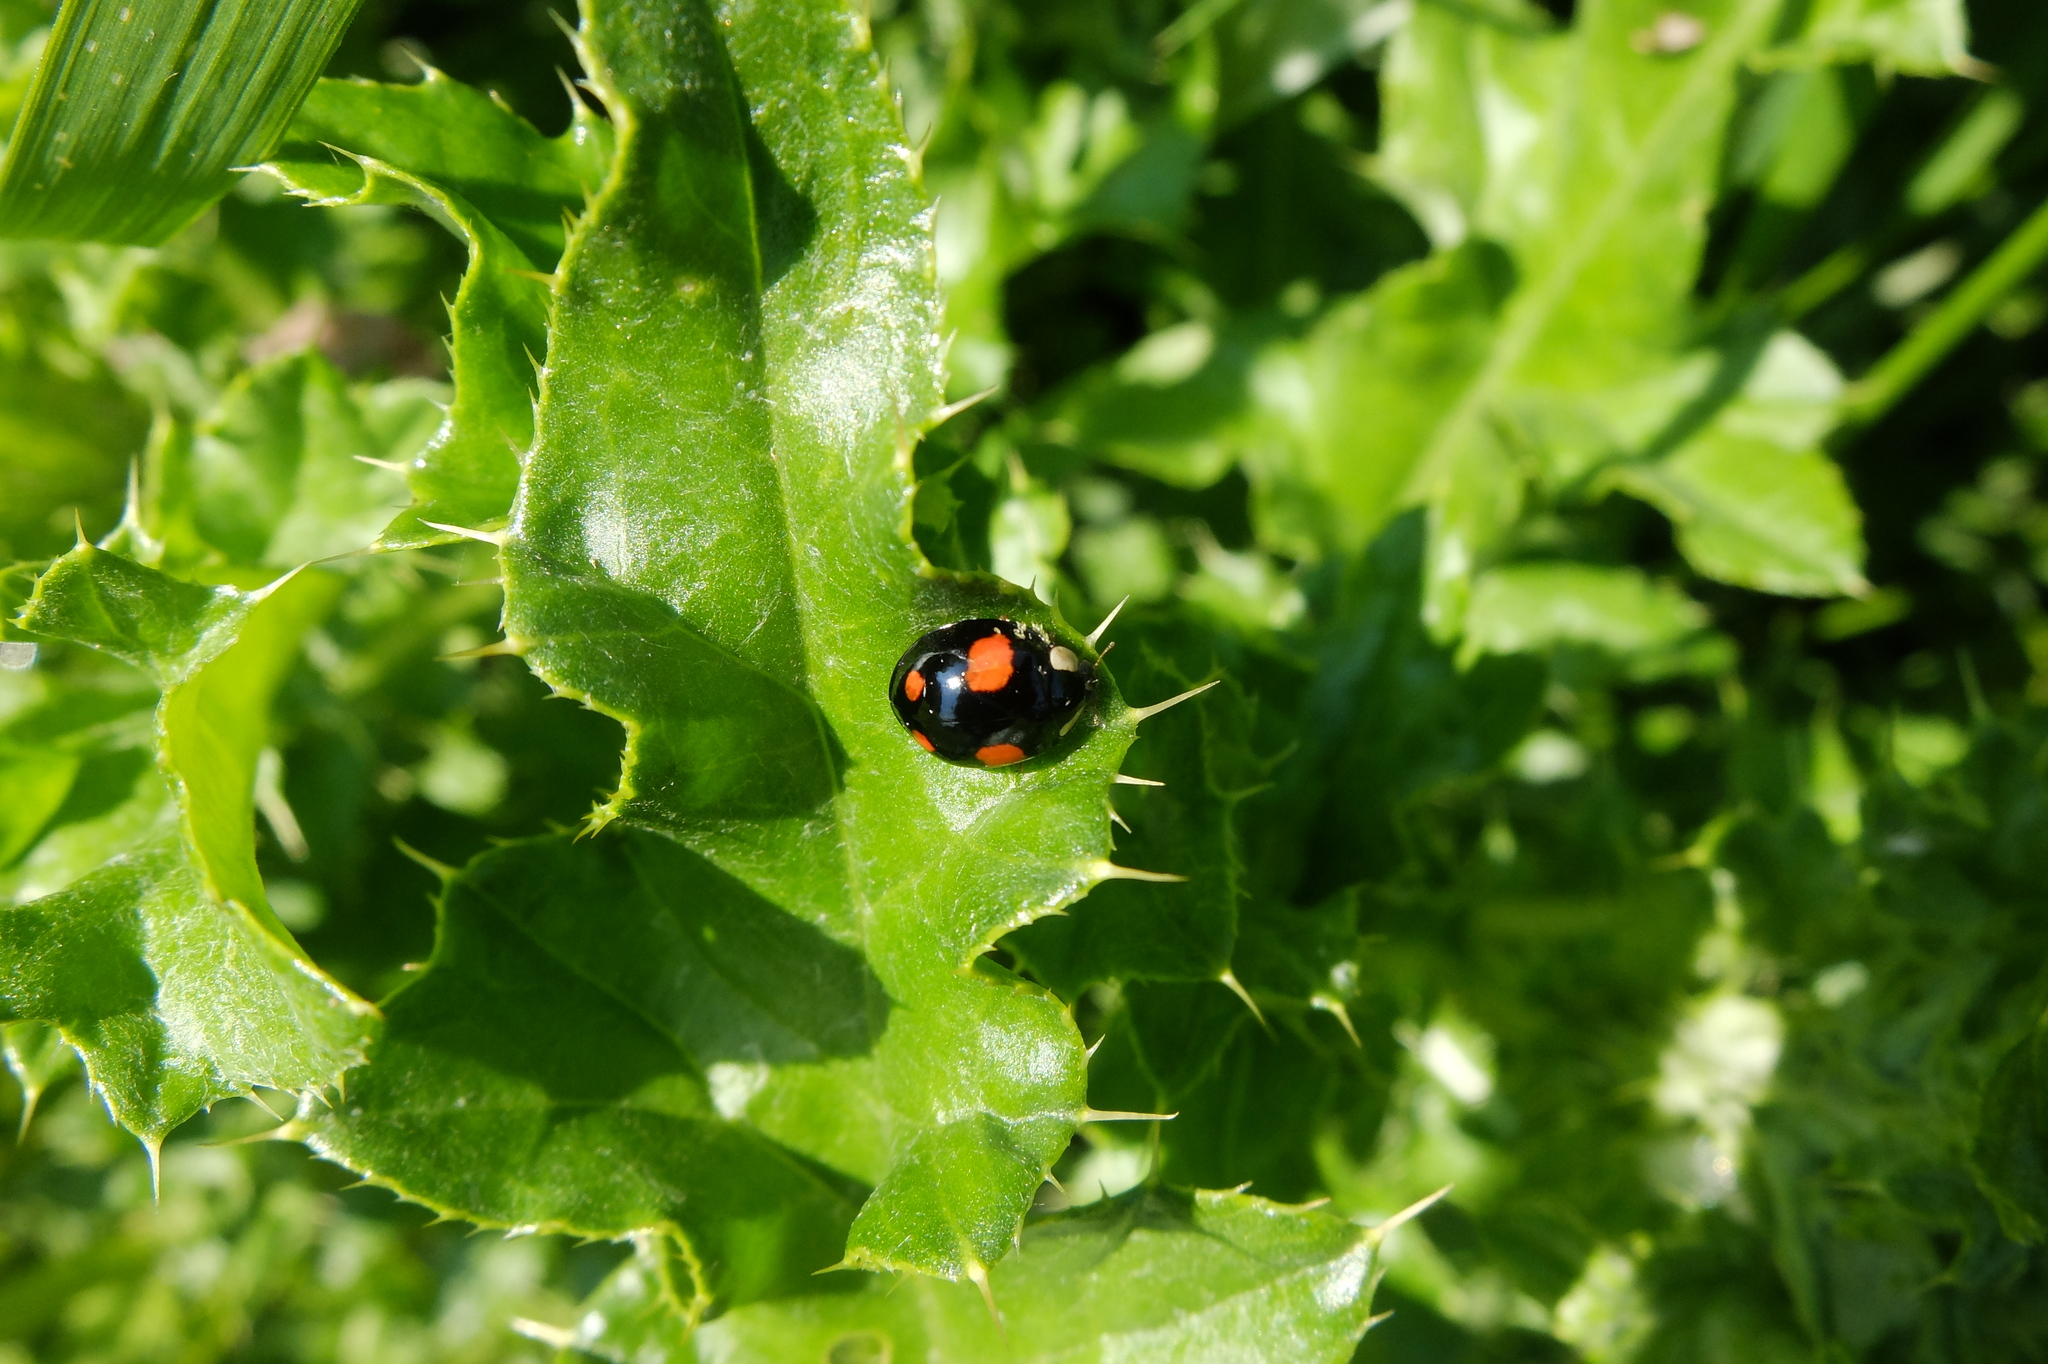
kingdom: Animalia
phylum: Arthropoda
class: Insecta
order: Coleoptera
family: Coccinellidae
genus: Harmonia
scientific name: Harmonia axyridis
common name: Harlequin ladybird
